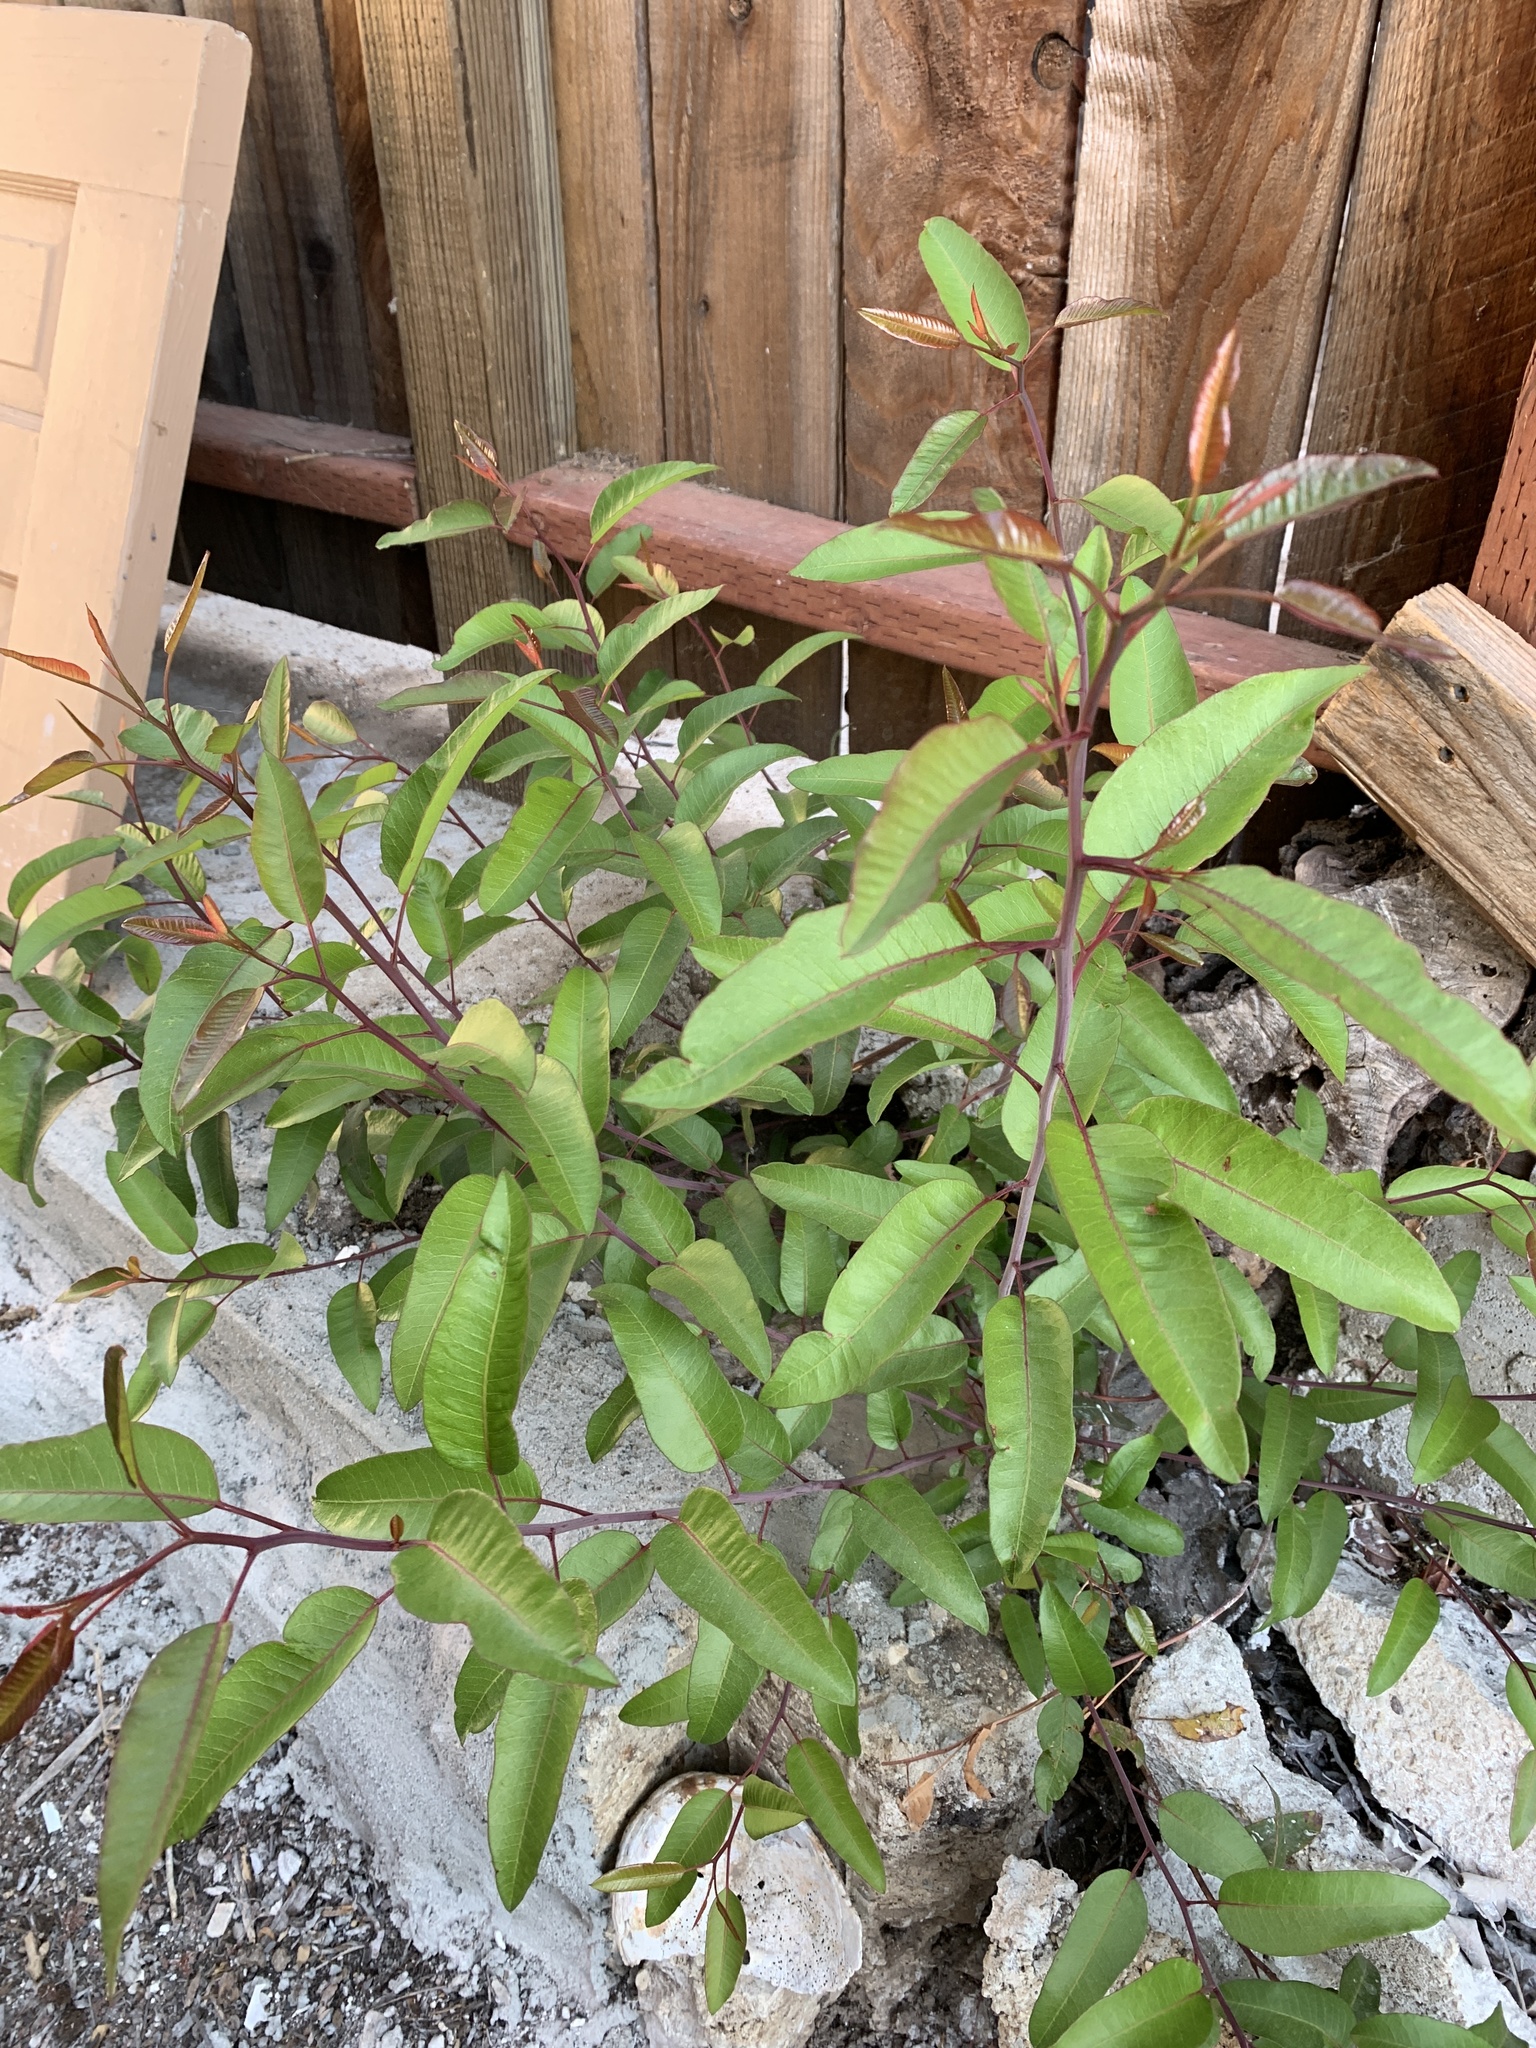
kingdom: Plantae
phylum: Tracheophyta
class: Magnoliopsida
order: Sapindales
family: Anacardiaceae
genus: Malosma
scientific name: Malosma laurina
